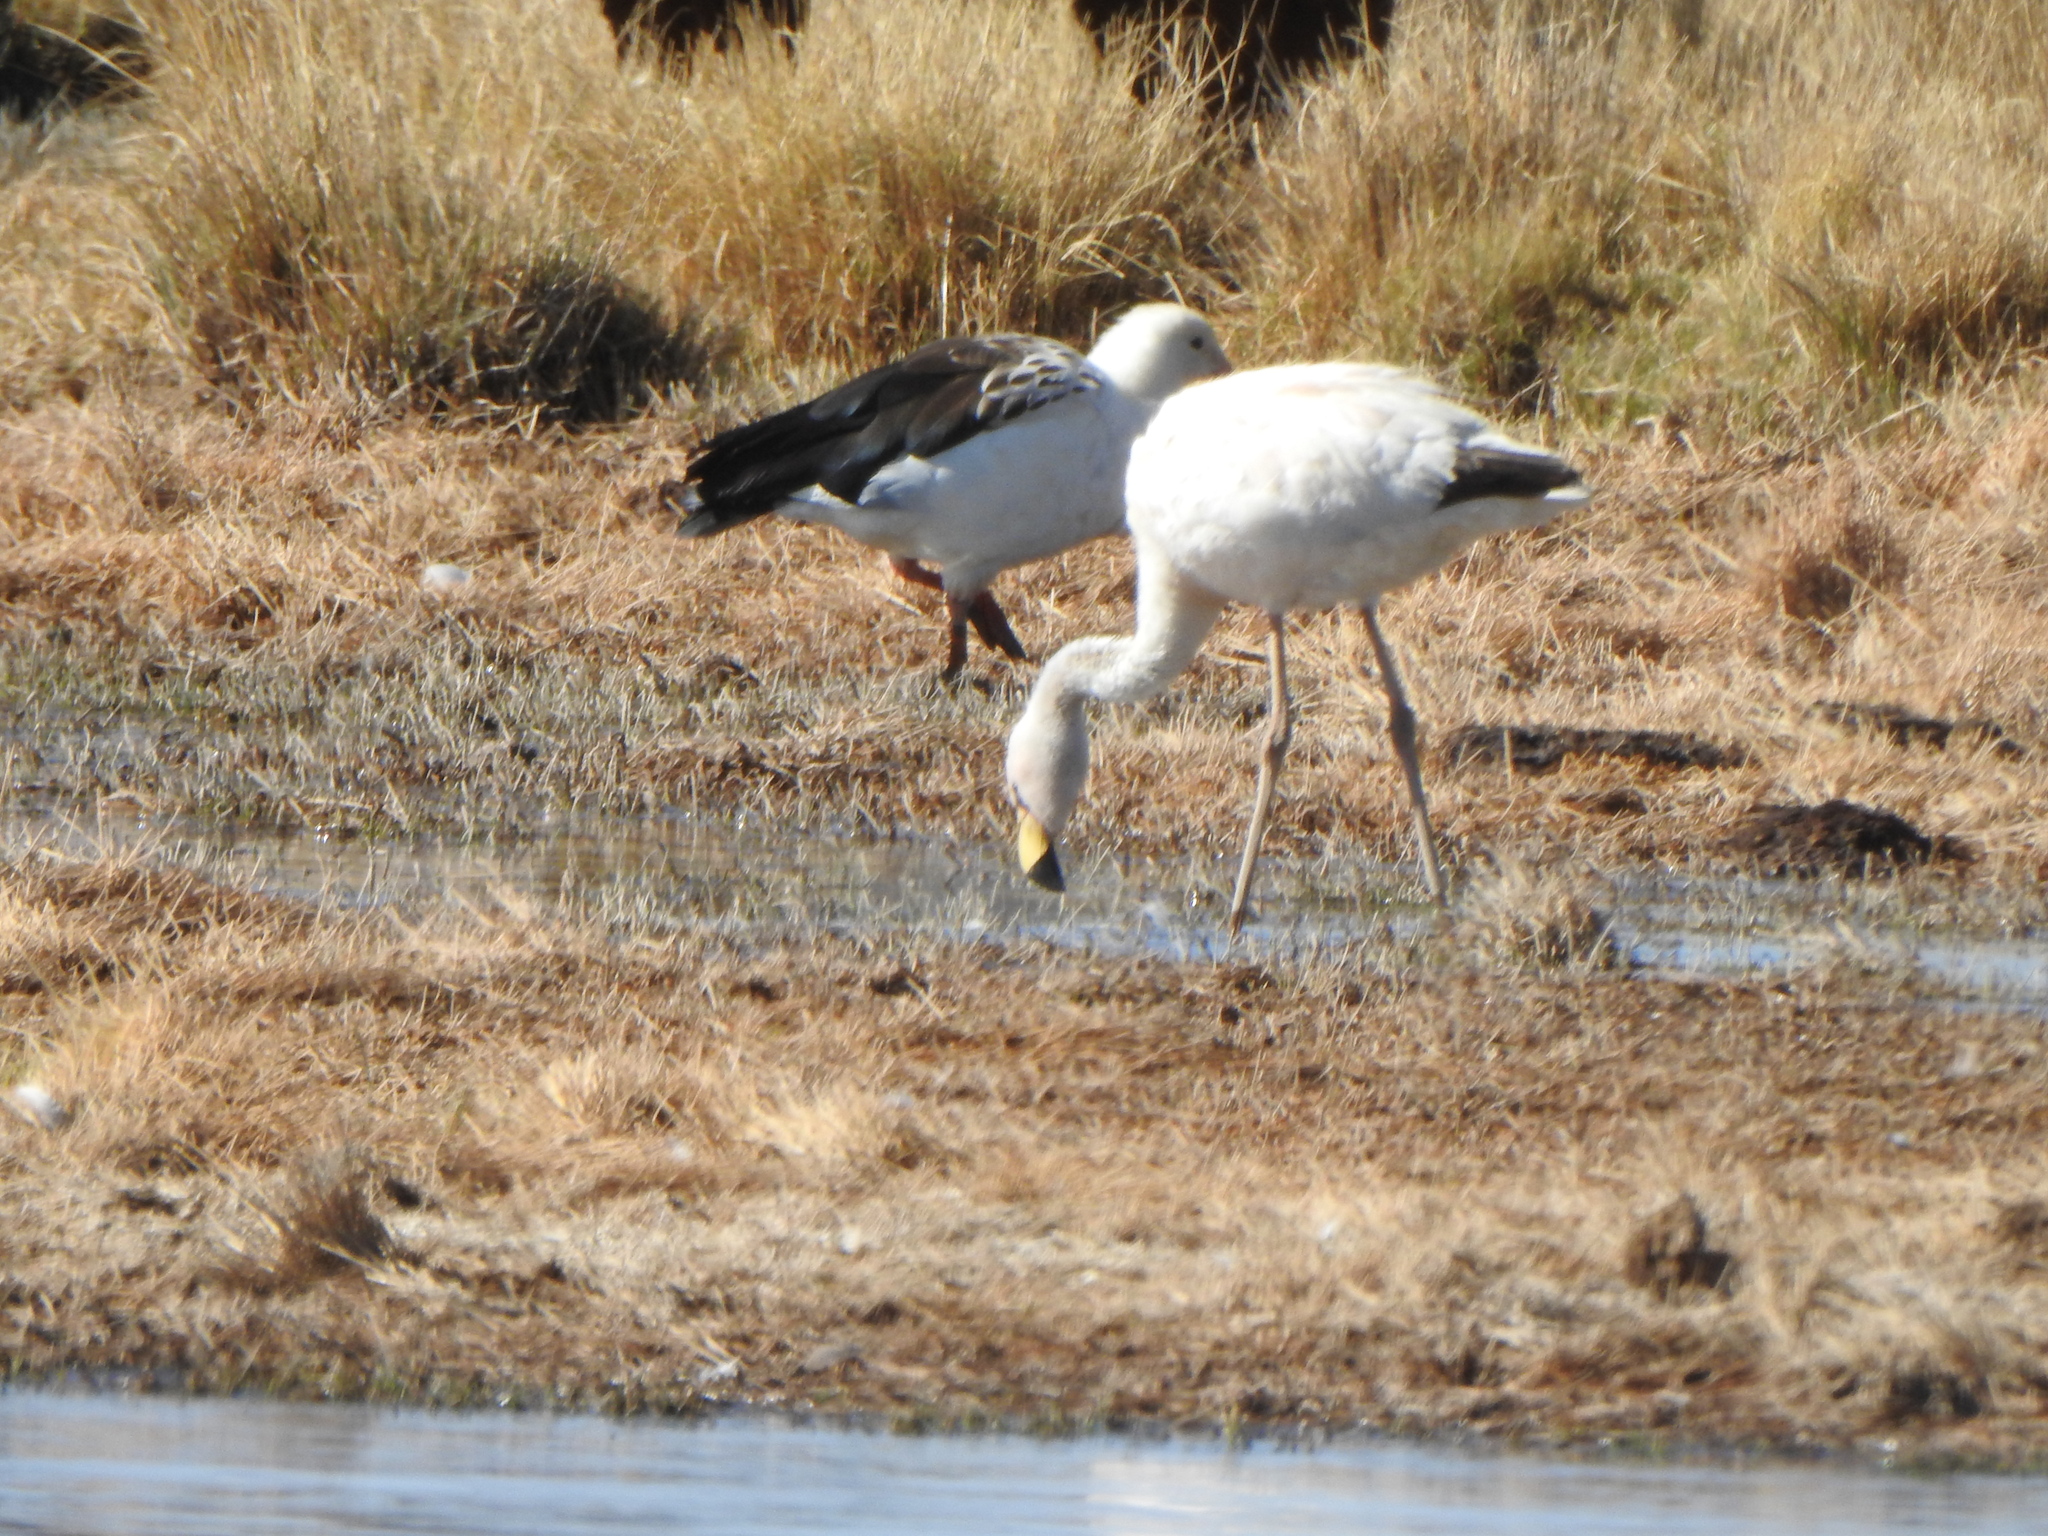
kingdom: Animalia
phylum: Chordata
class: Aves
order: Anseriformes
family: Anatidae
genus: Chloephaga
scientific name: Chloephaga melanoptera
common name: Andean goose
